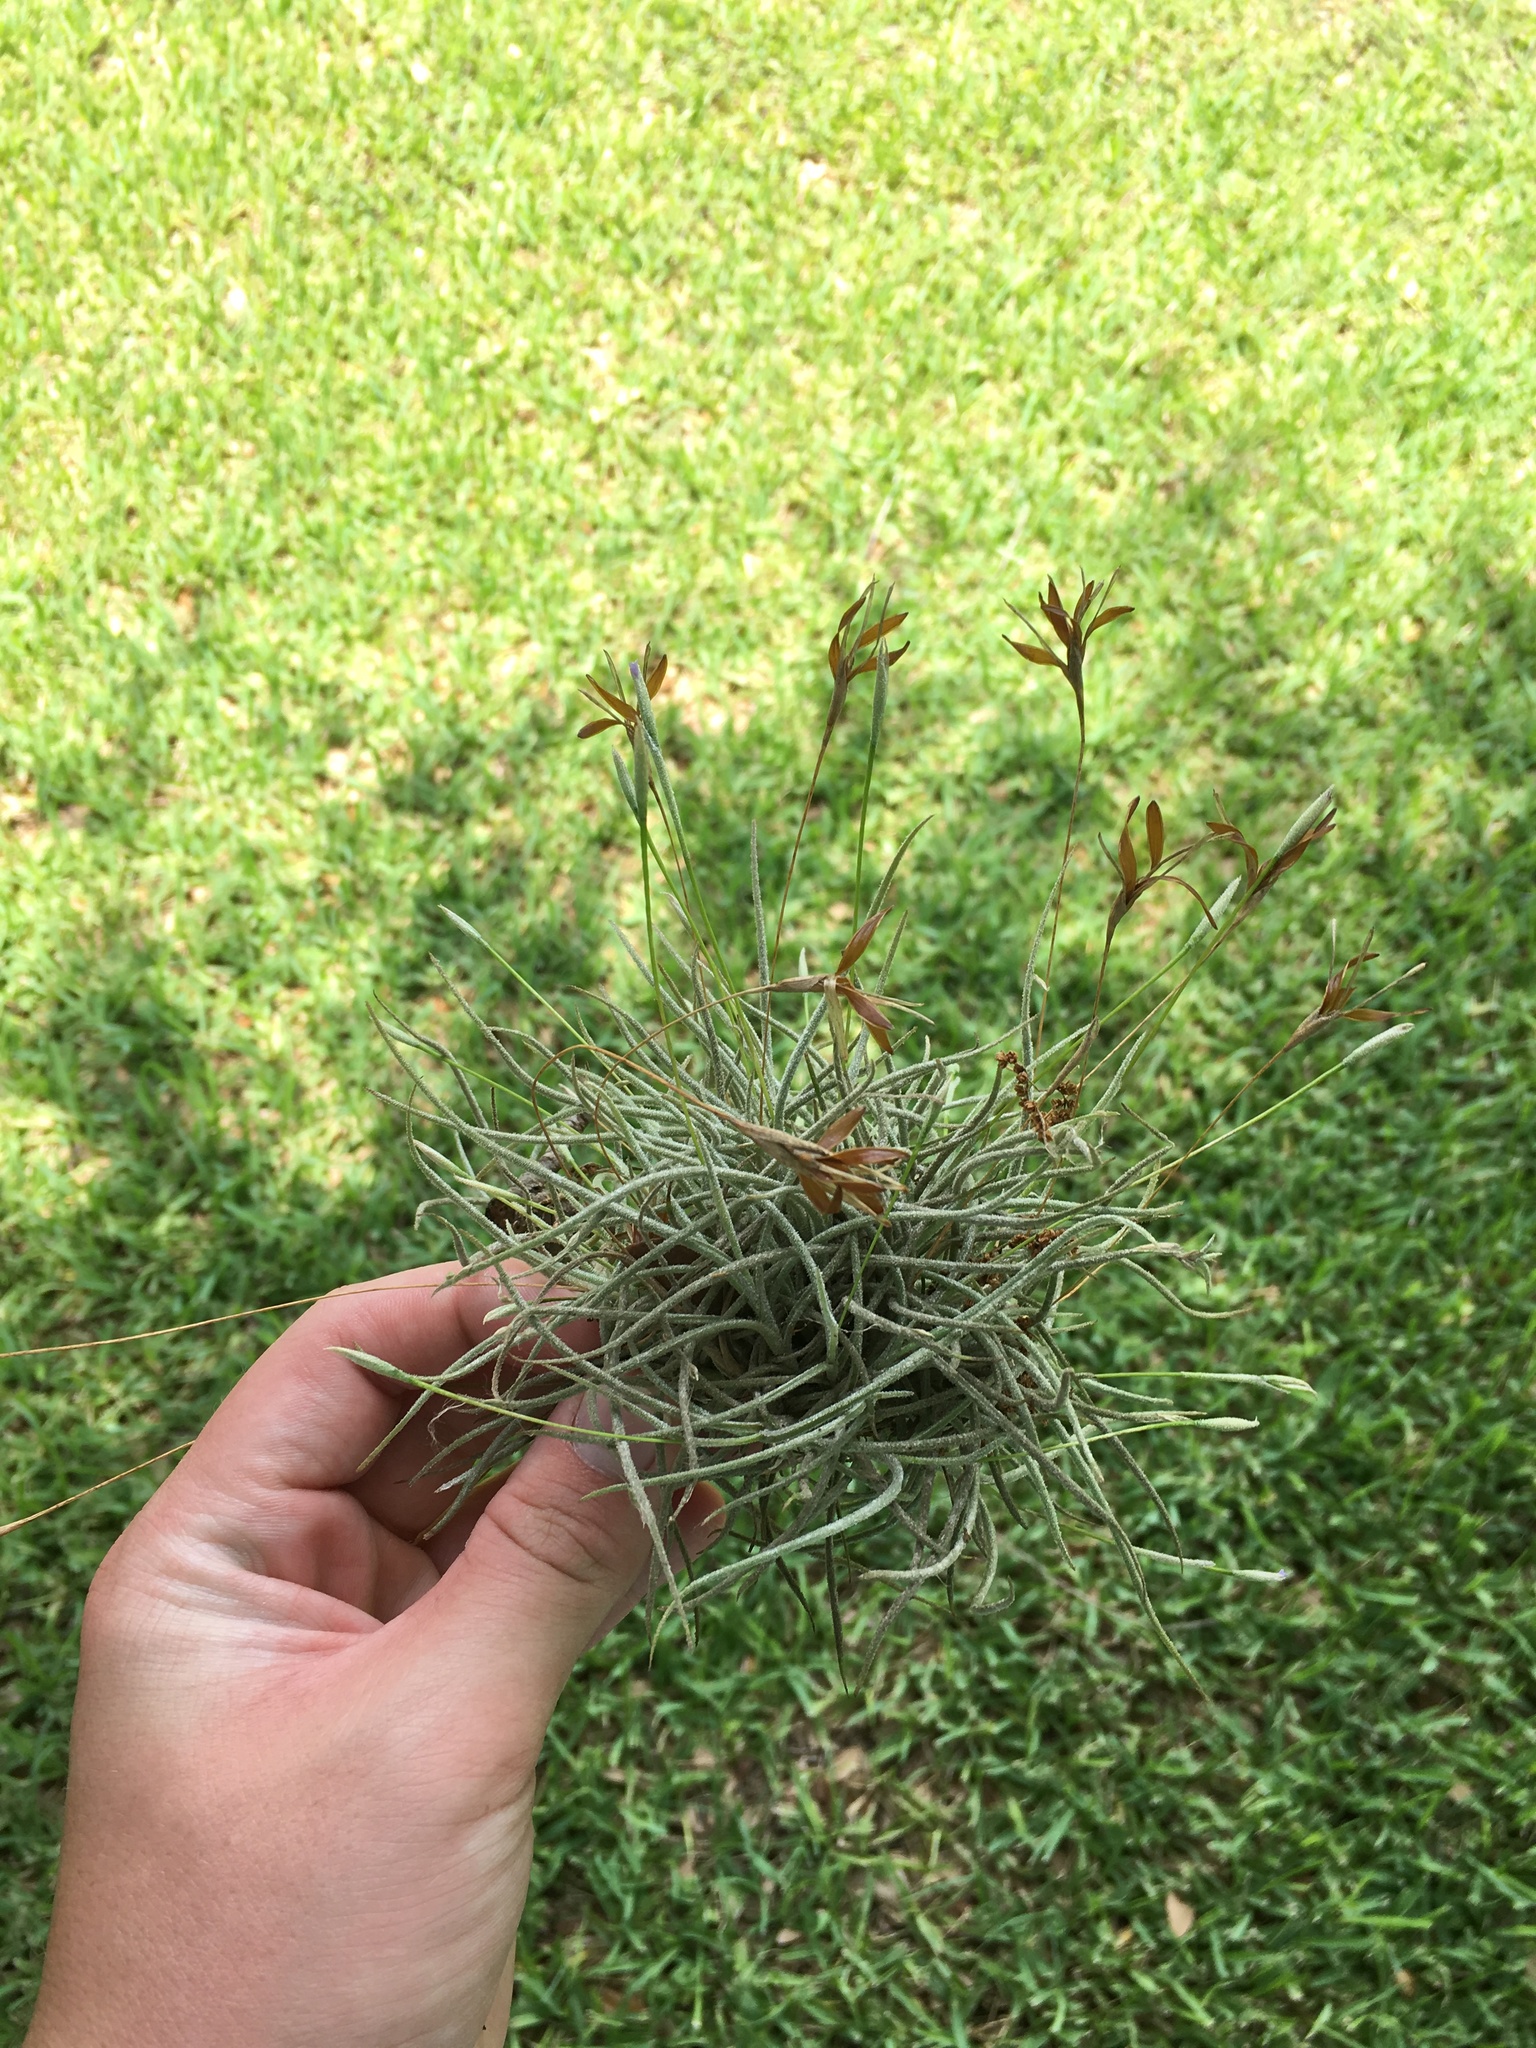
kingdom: Plantae
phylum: Tracheophyta
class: Liliopsida
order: Poales
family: Bromeliaceae
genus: Tillandsia
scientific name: Tillandsia recurvata
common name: Small ballmoss
